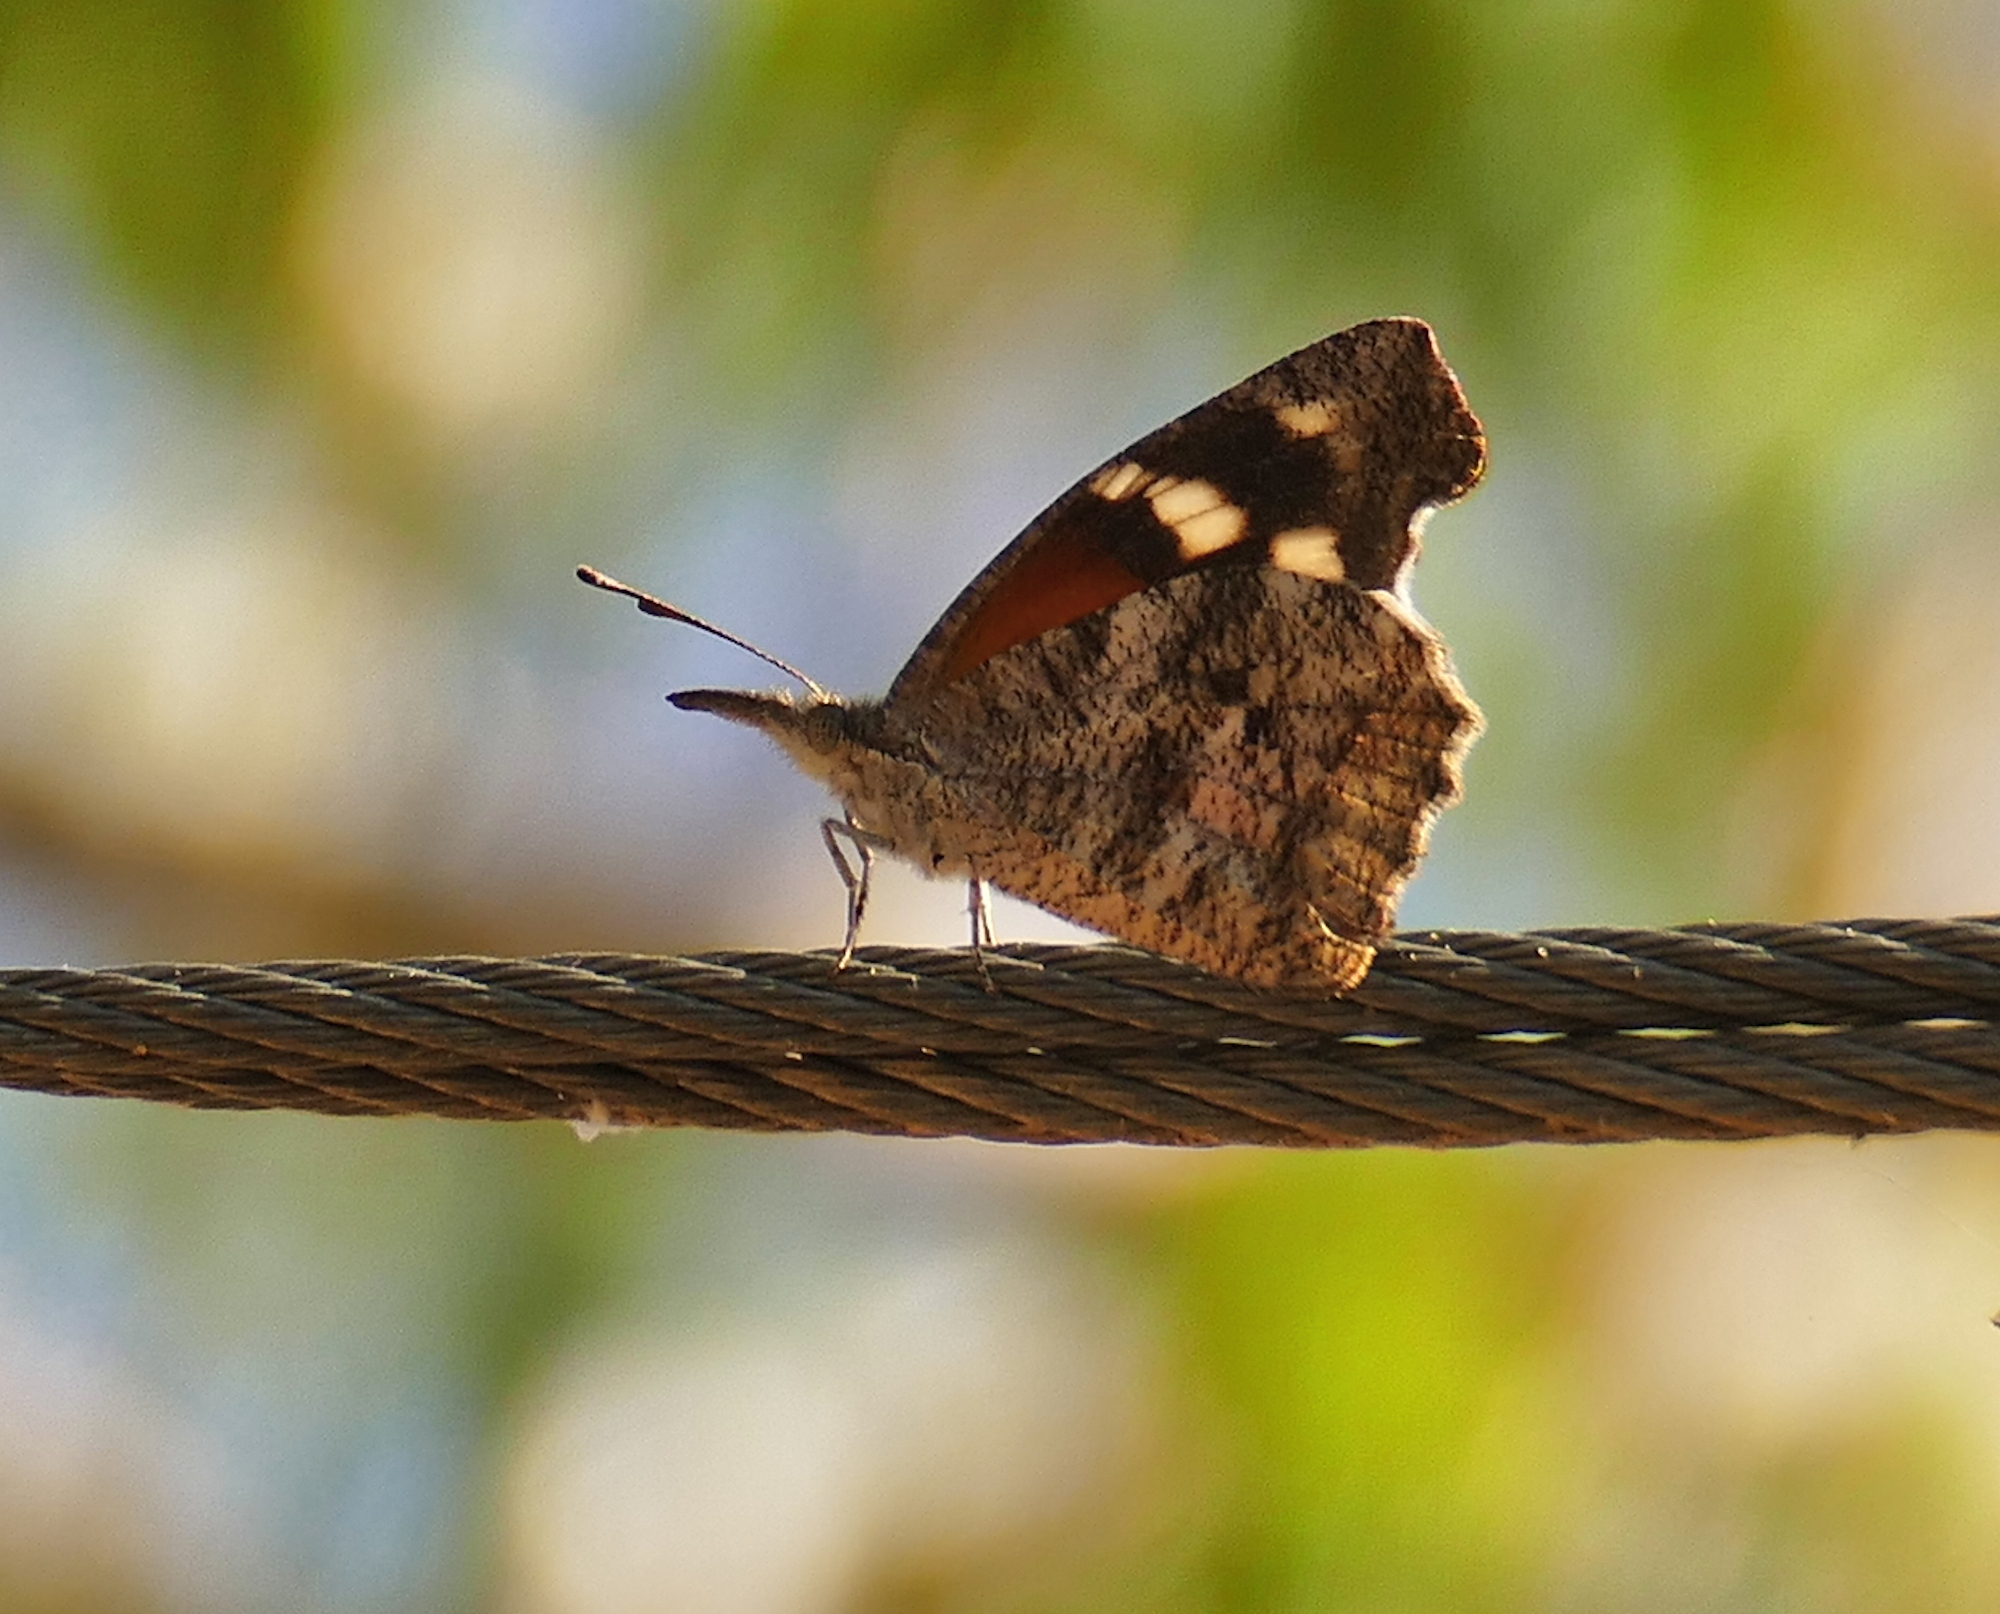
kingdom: Animalia
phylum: Arthropoda
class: Insecta
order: Lepidoptera
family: Nymphalidae
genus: Libytheana
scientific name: Libytheana carinenta
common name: American snout
